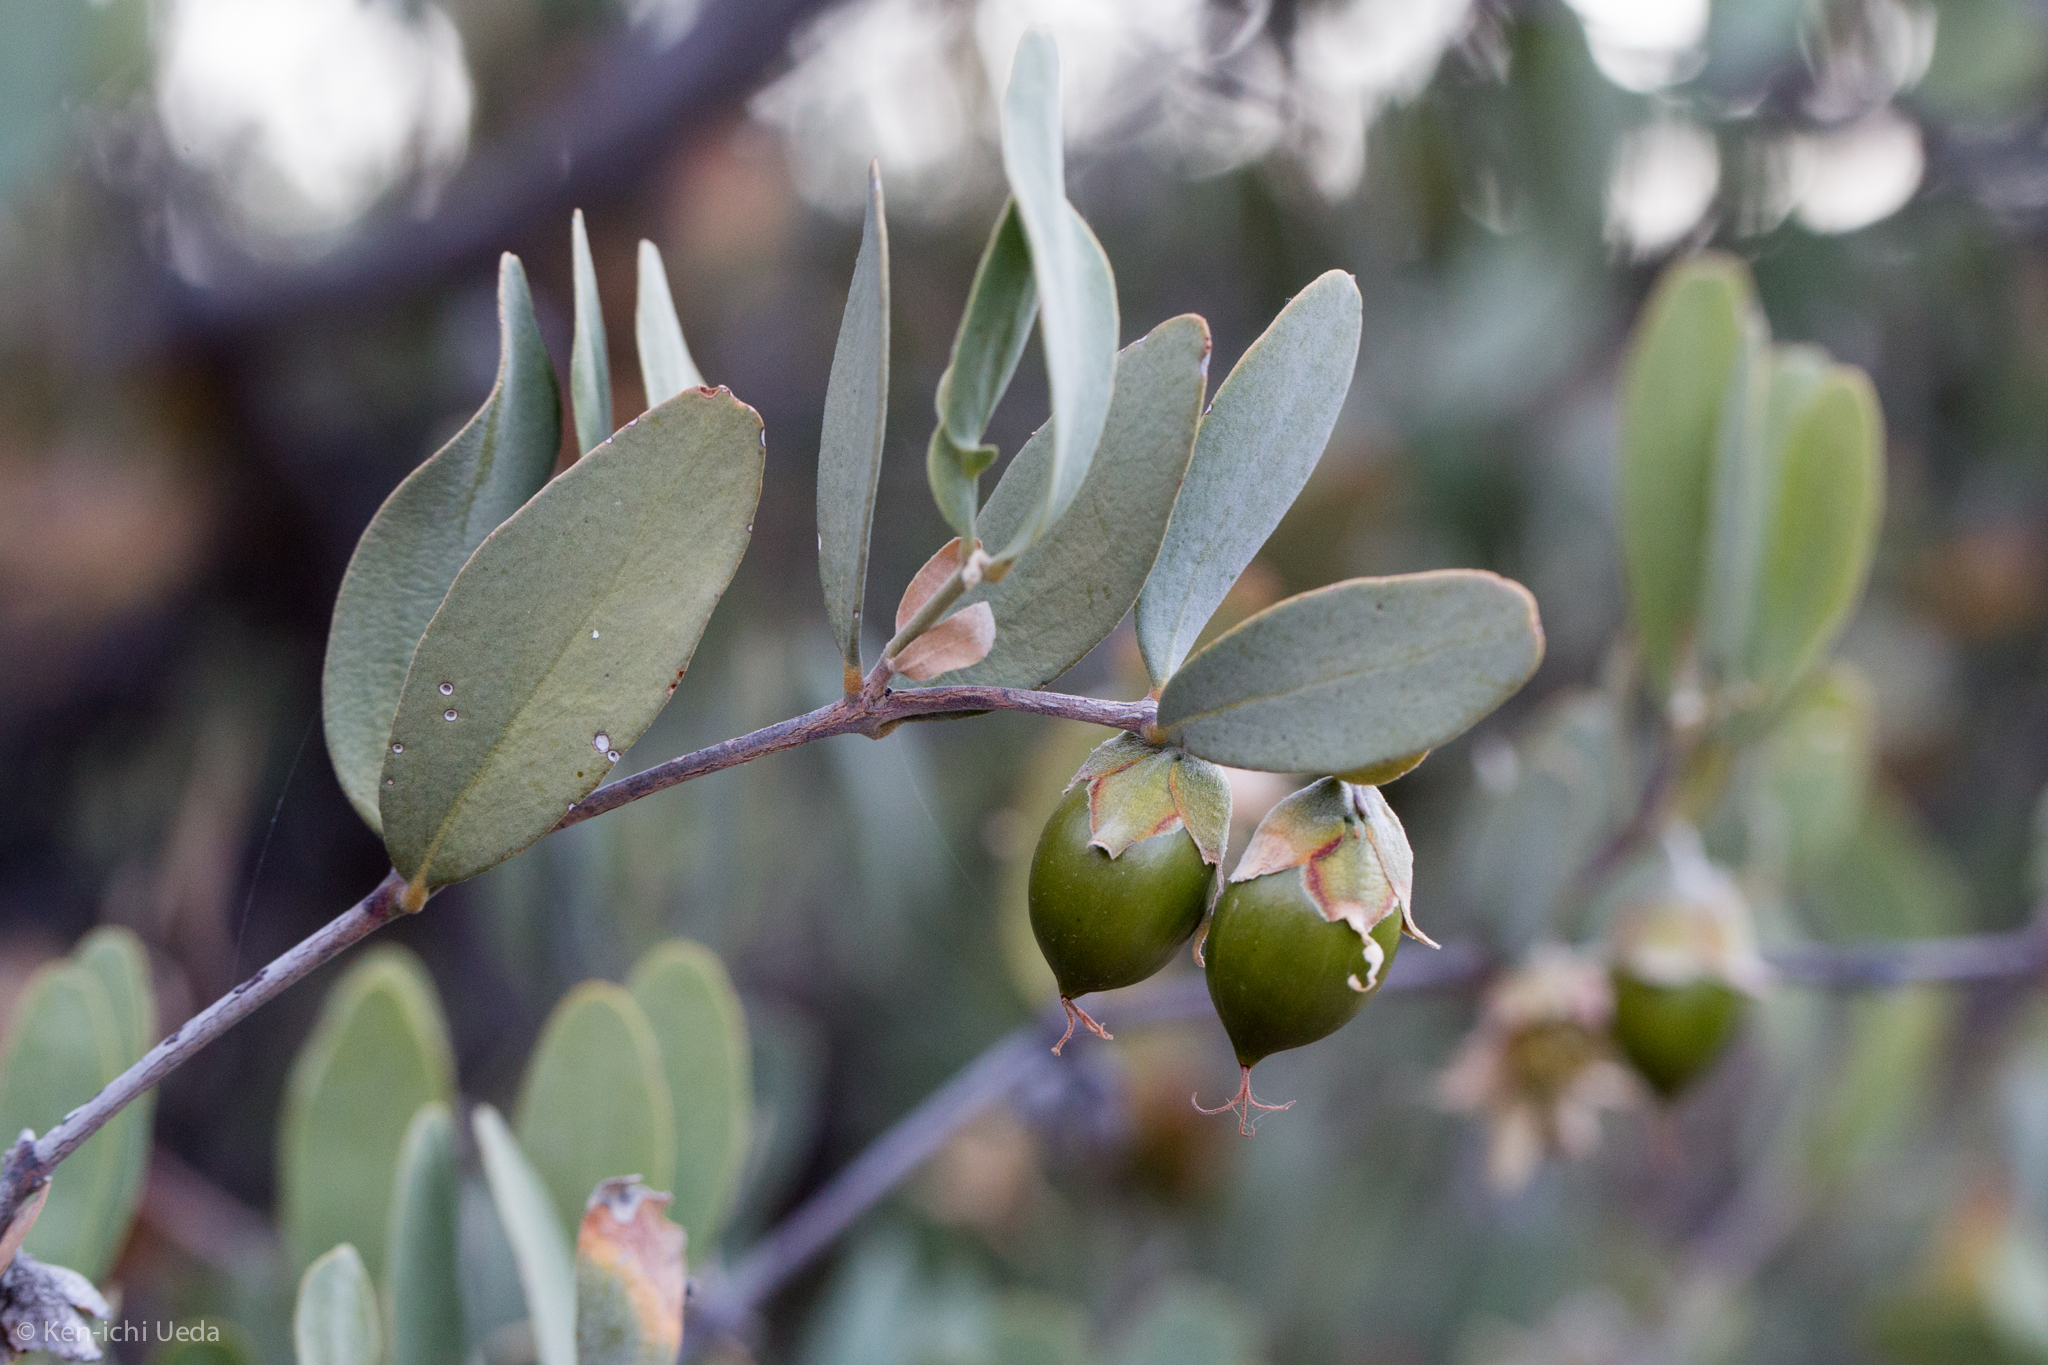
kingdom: Plantae
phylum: Tracheophyta
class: Magnoliopsida
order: Caryophyllales
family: Simmondsiaceae
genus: Simmondsia
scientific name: Simmondsia chinensis
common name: Jojoba
